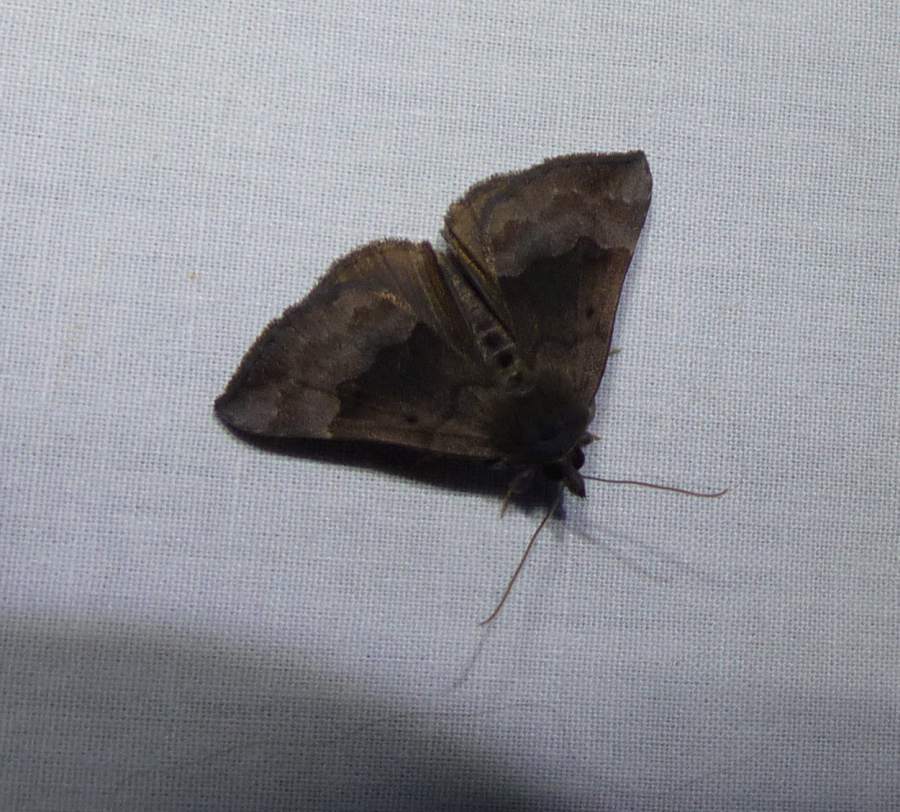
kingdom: Animalia
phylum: Arthropoda
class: Insecta
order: Lepidoptera
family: Erebidae
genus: Hypena
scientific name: Hypena madefactalis
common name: Gray-edged snout
